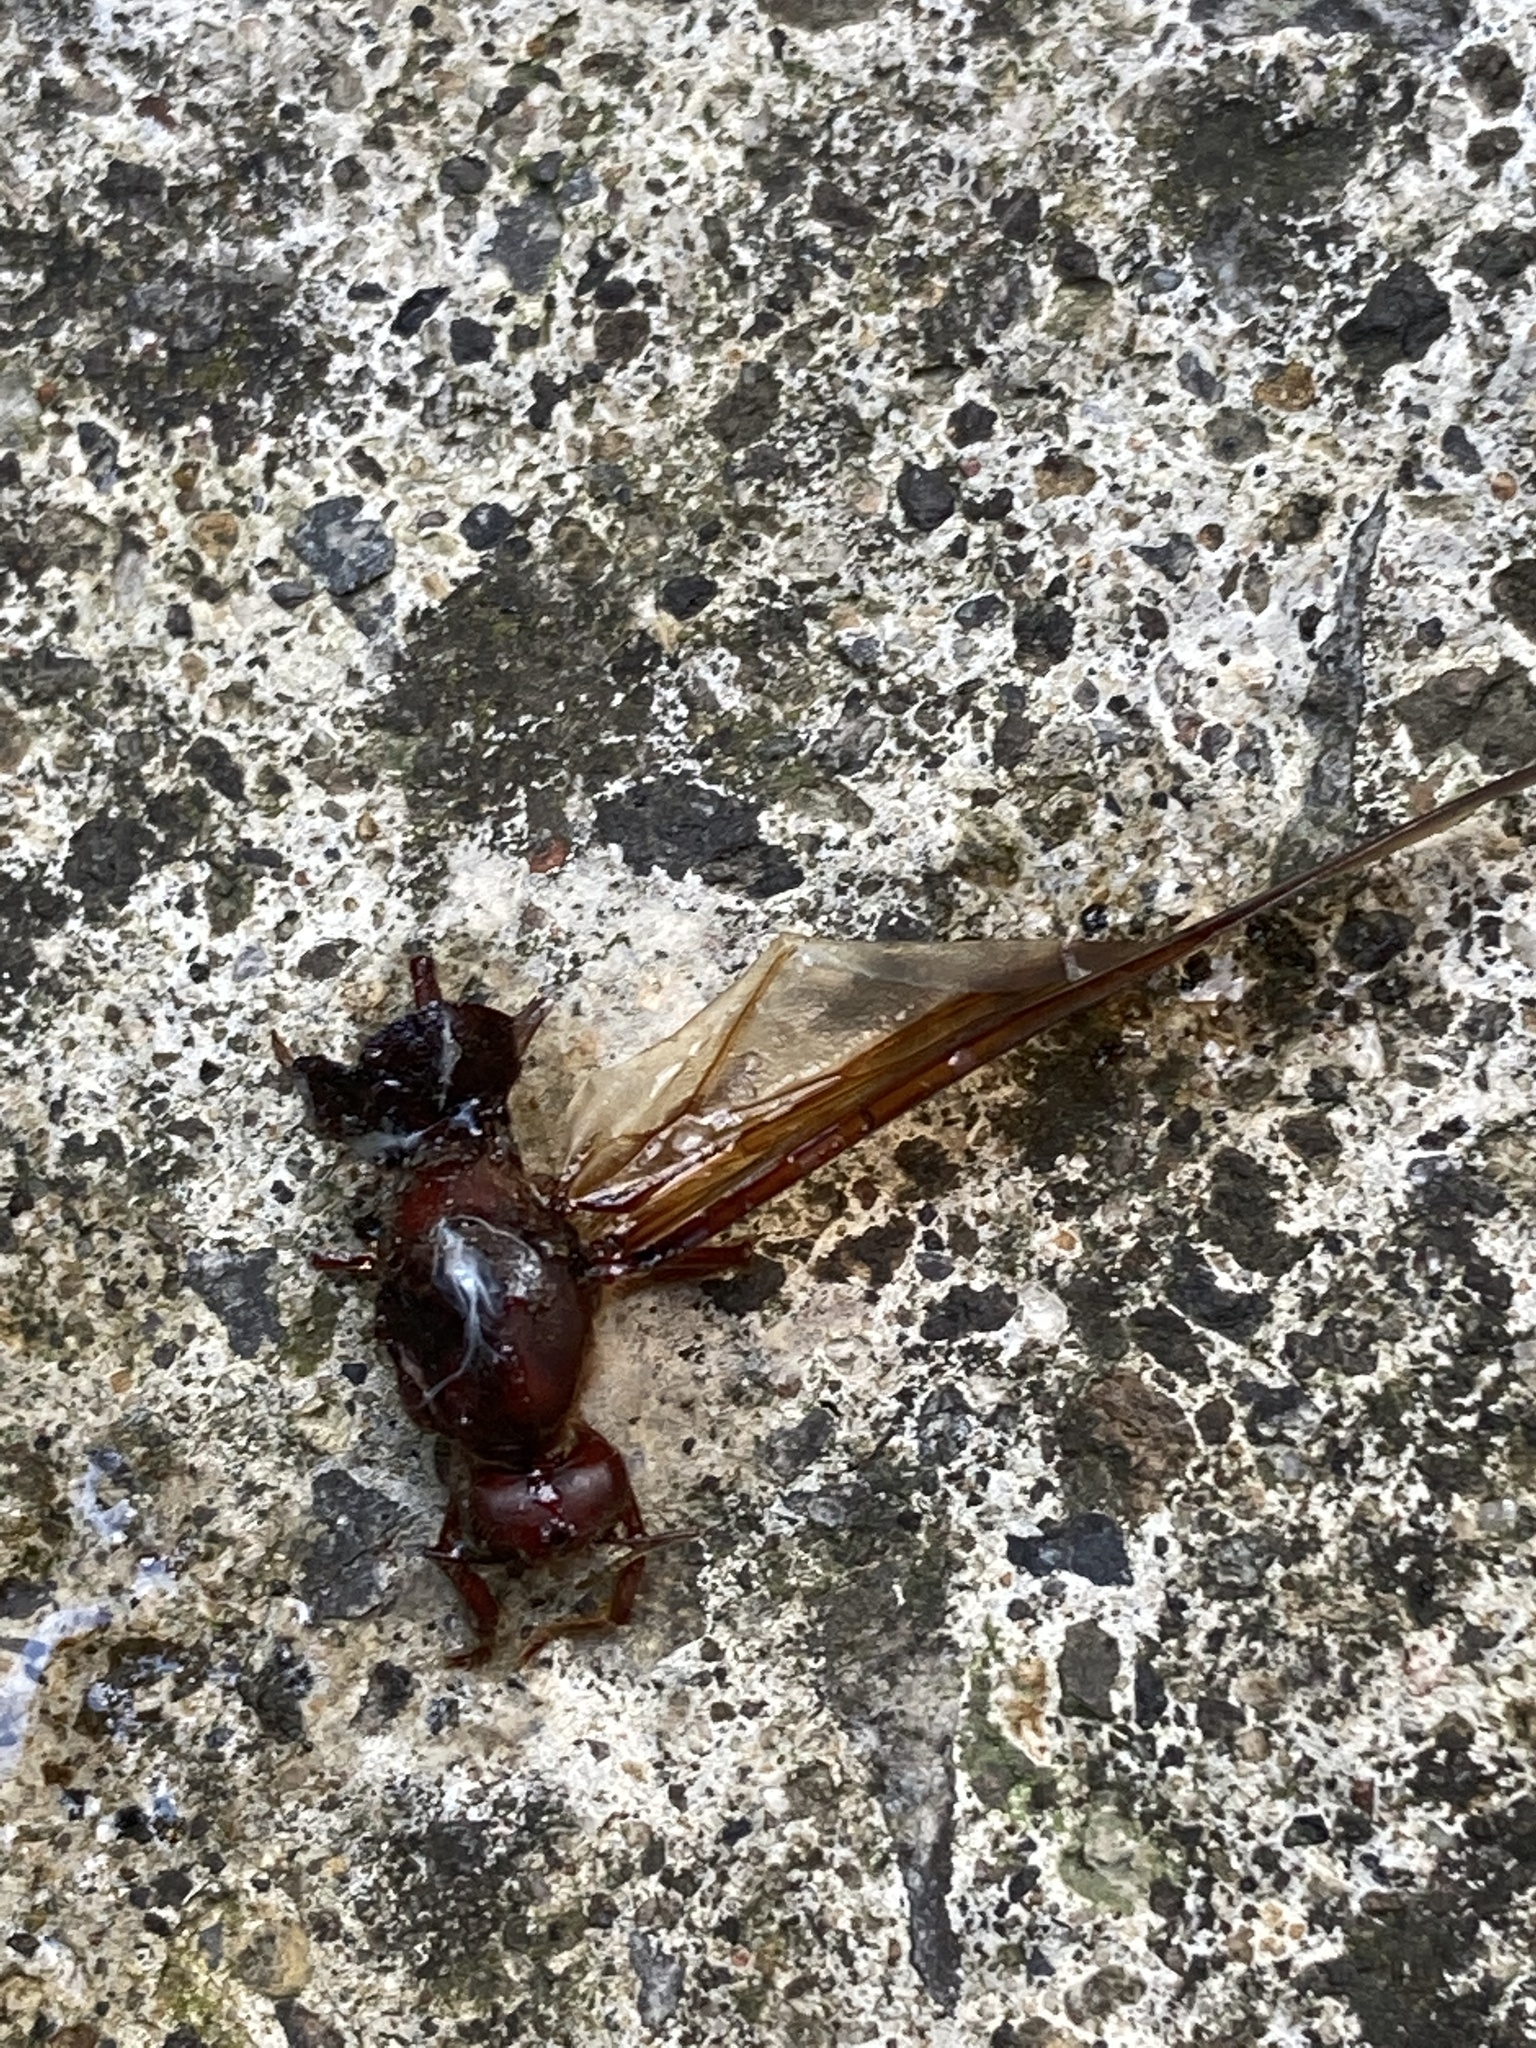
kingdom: Animalia
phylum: Arthropoda
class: Insecta
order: Hymenoptera
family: Formicidae
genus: Atta
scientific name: Atta mexicana
